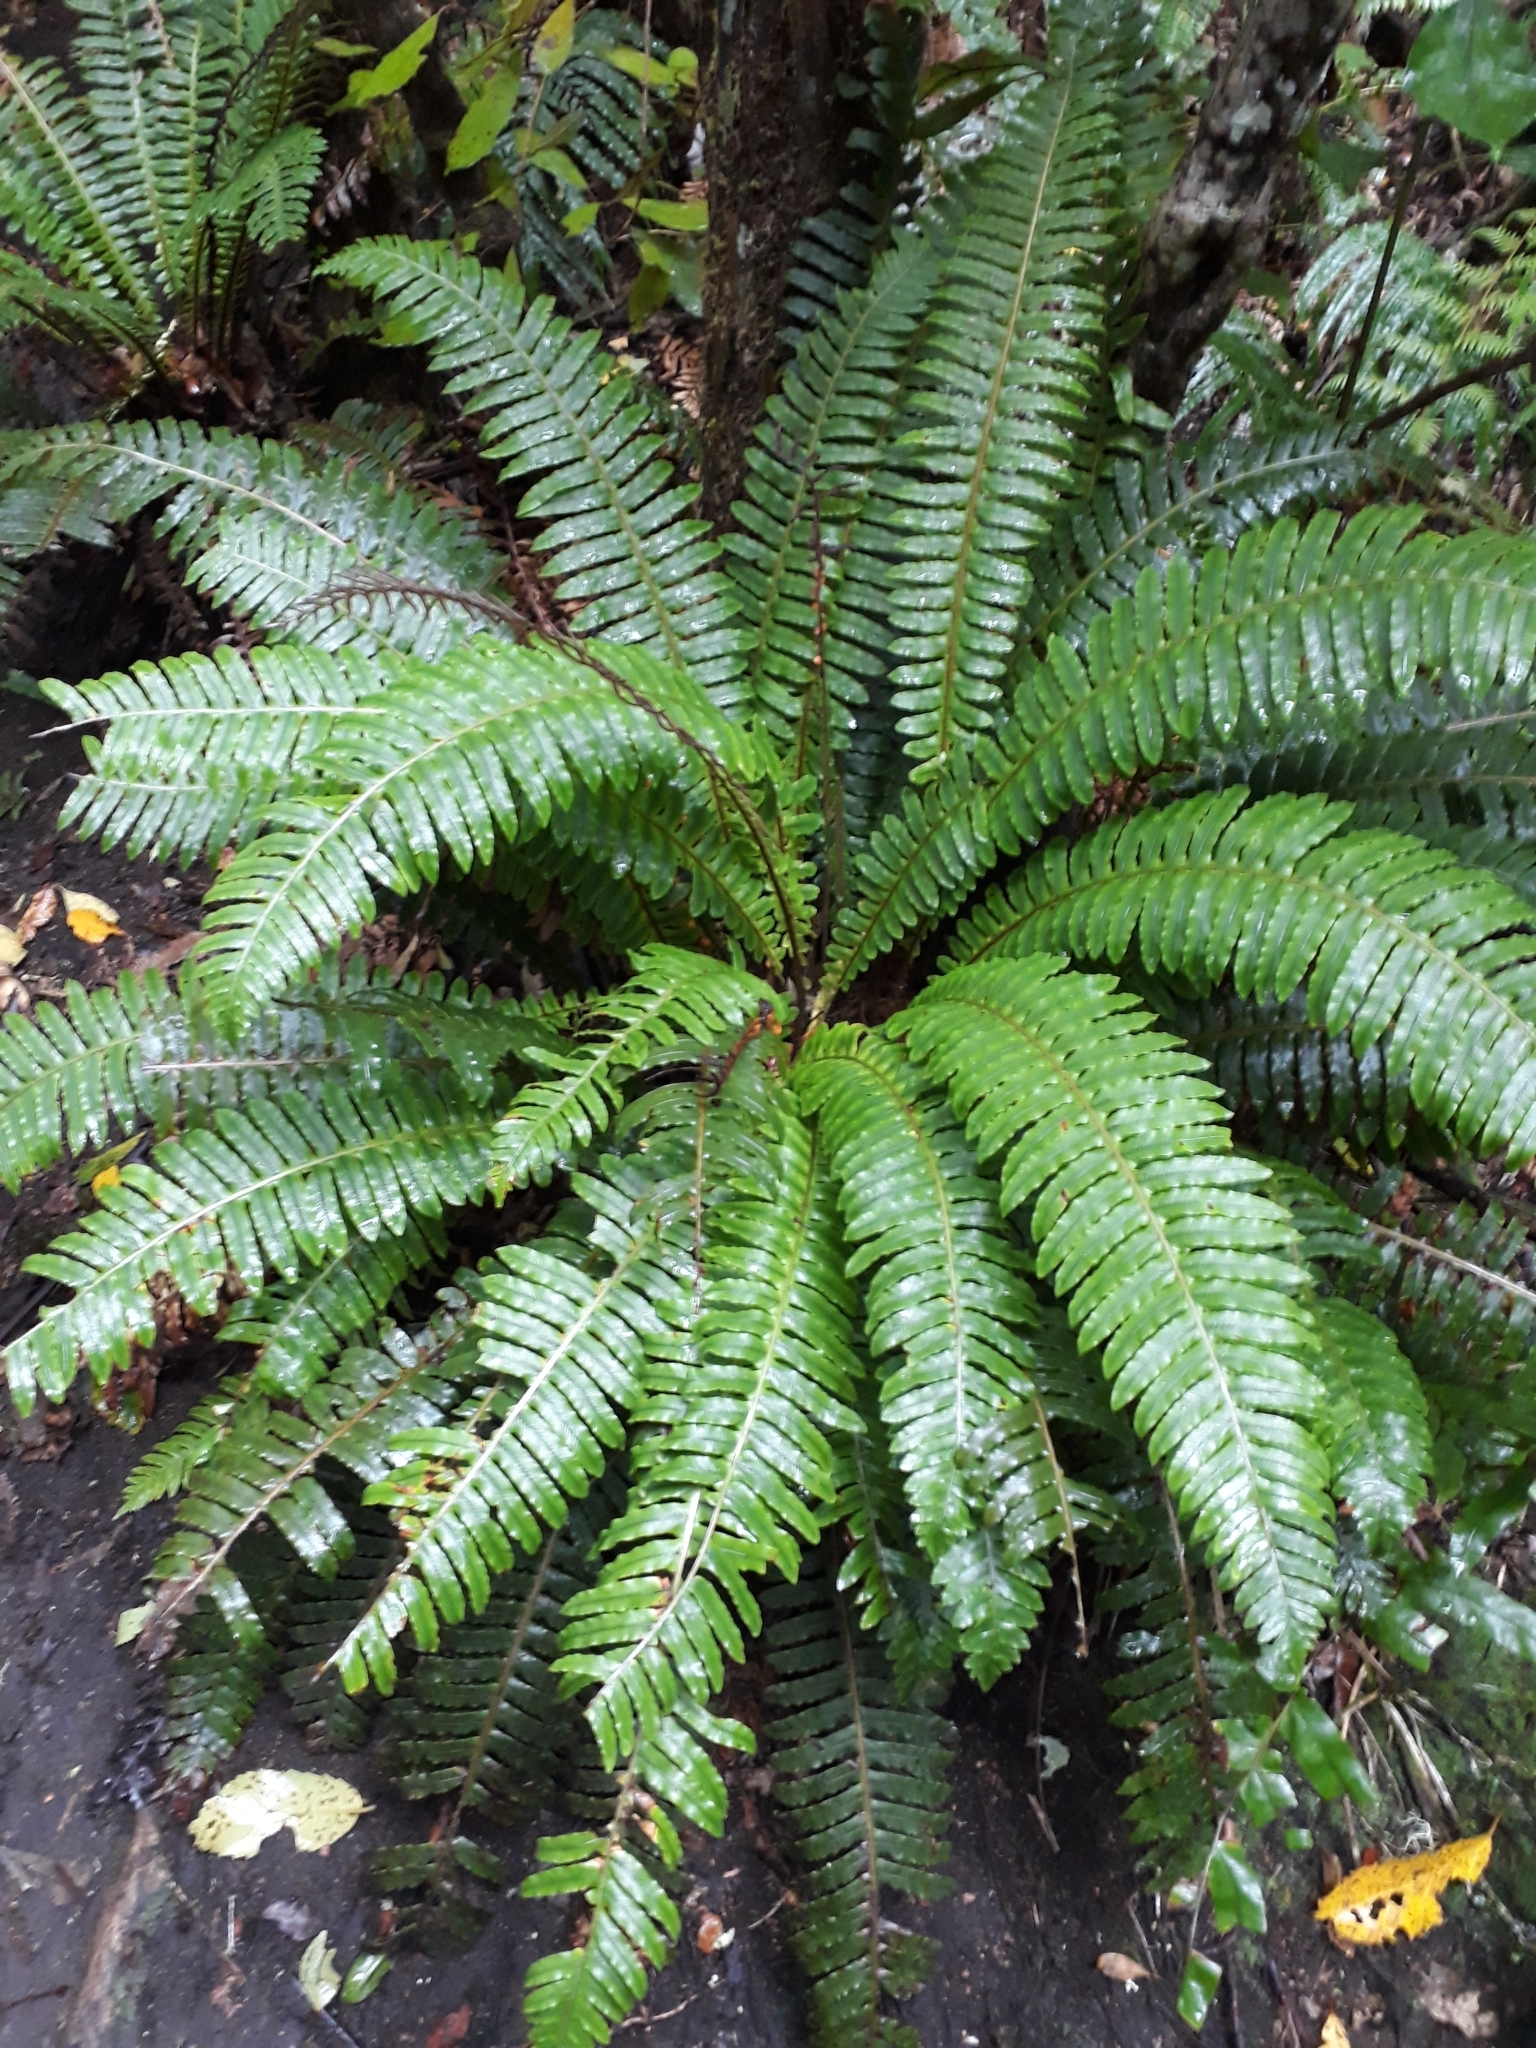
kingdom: Plantae
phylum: Tracheophyta
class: Polypodiopsida
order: Polypodiales
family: Blechnaceae
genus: Lomaria
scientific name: Lomaria discolor
